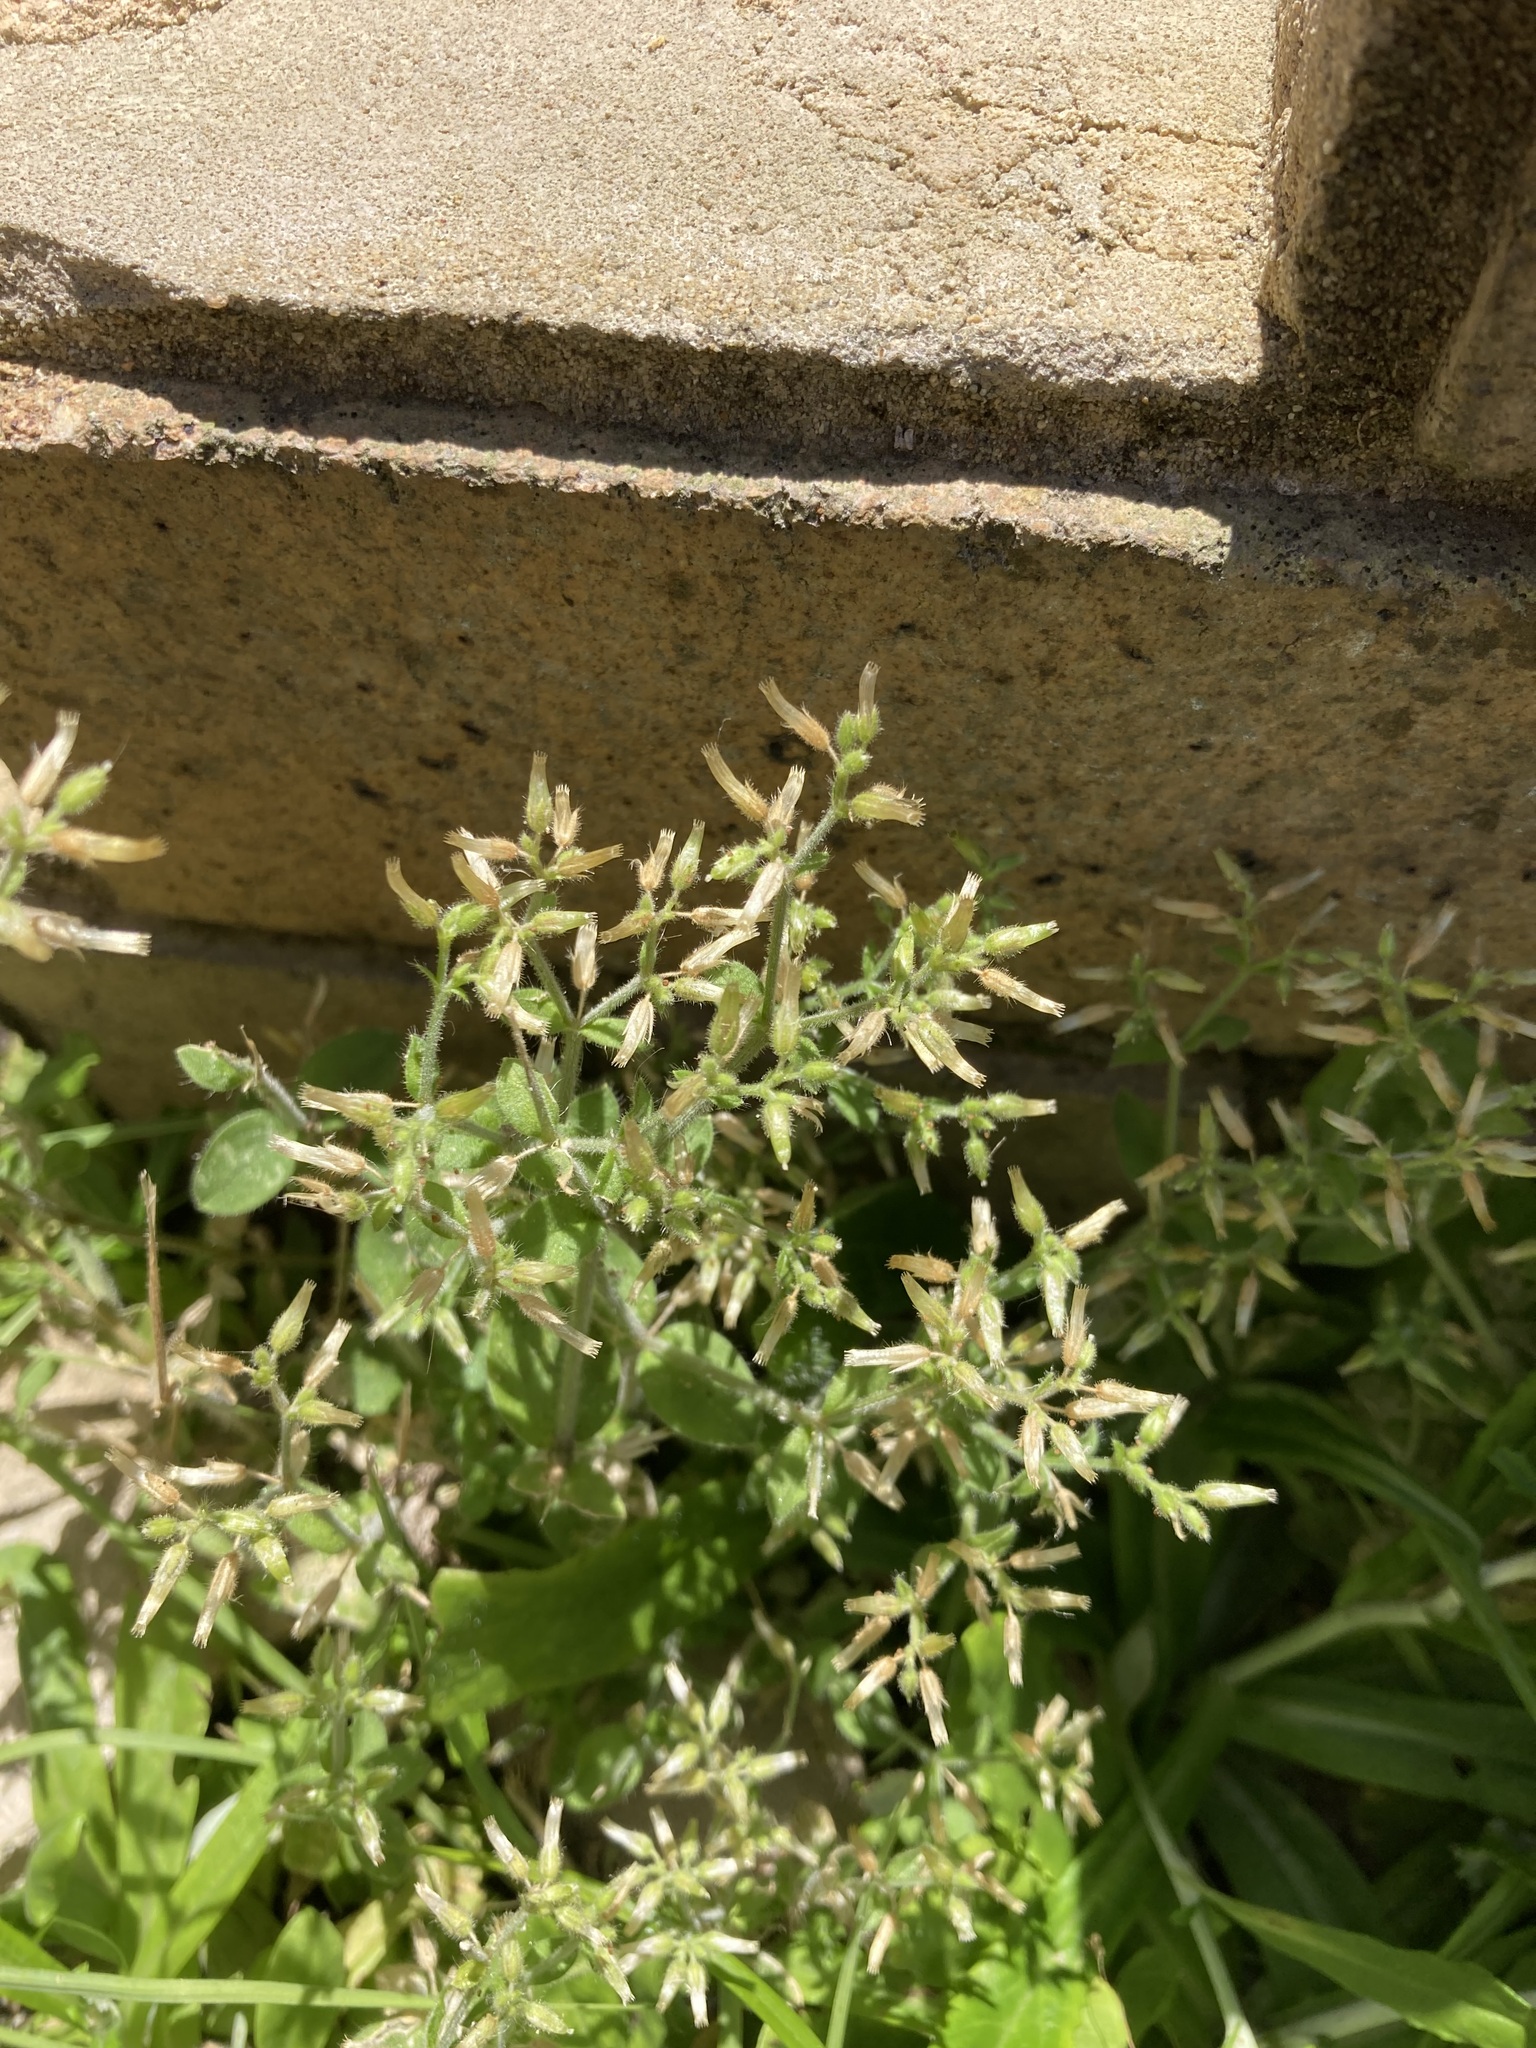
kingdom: Plantae
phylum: Tracheophyta
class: Magnoliopsida
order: Caryophyllales
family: Caryophyllaceae
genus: Cerastium
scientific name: Cerastium glomeratum
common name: Sticky chickweed
